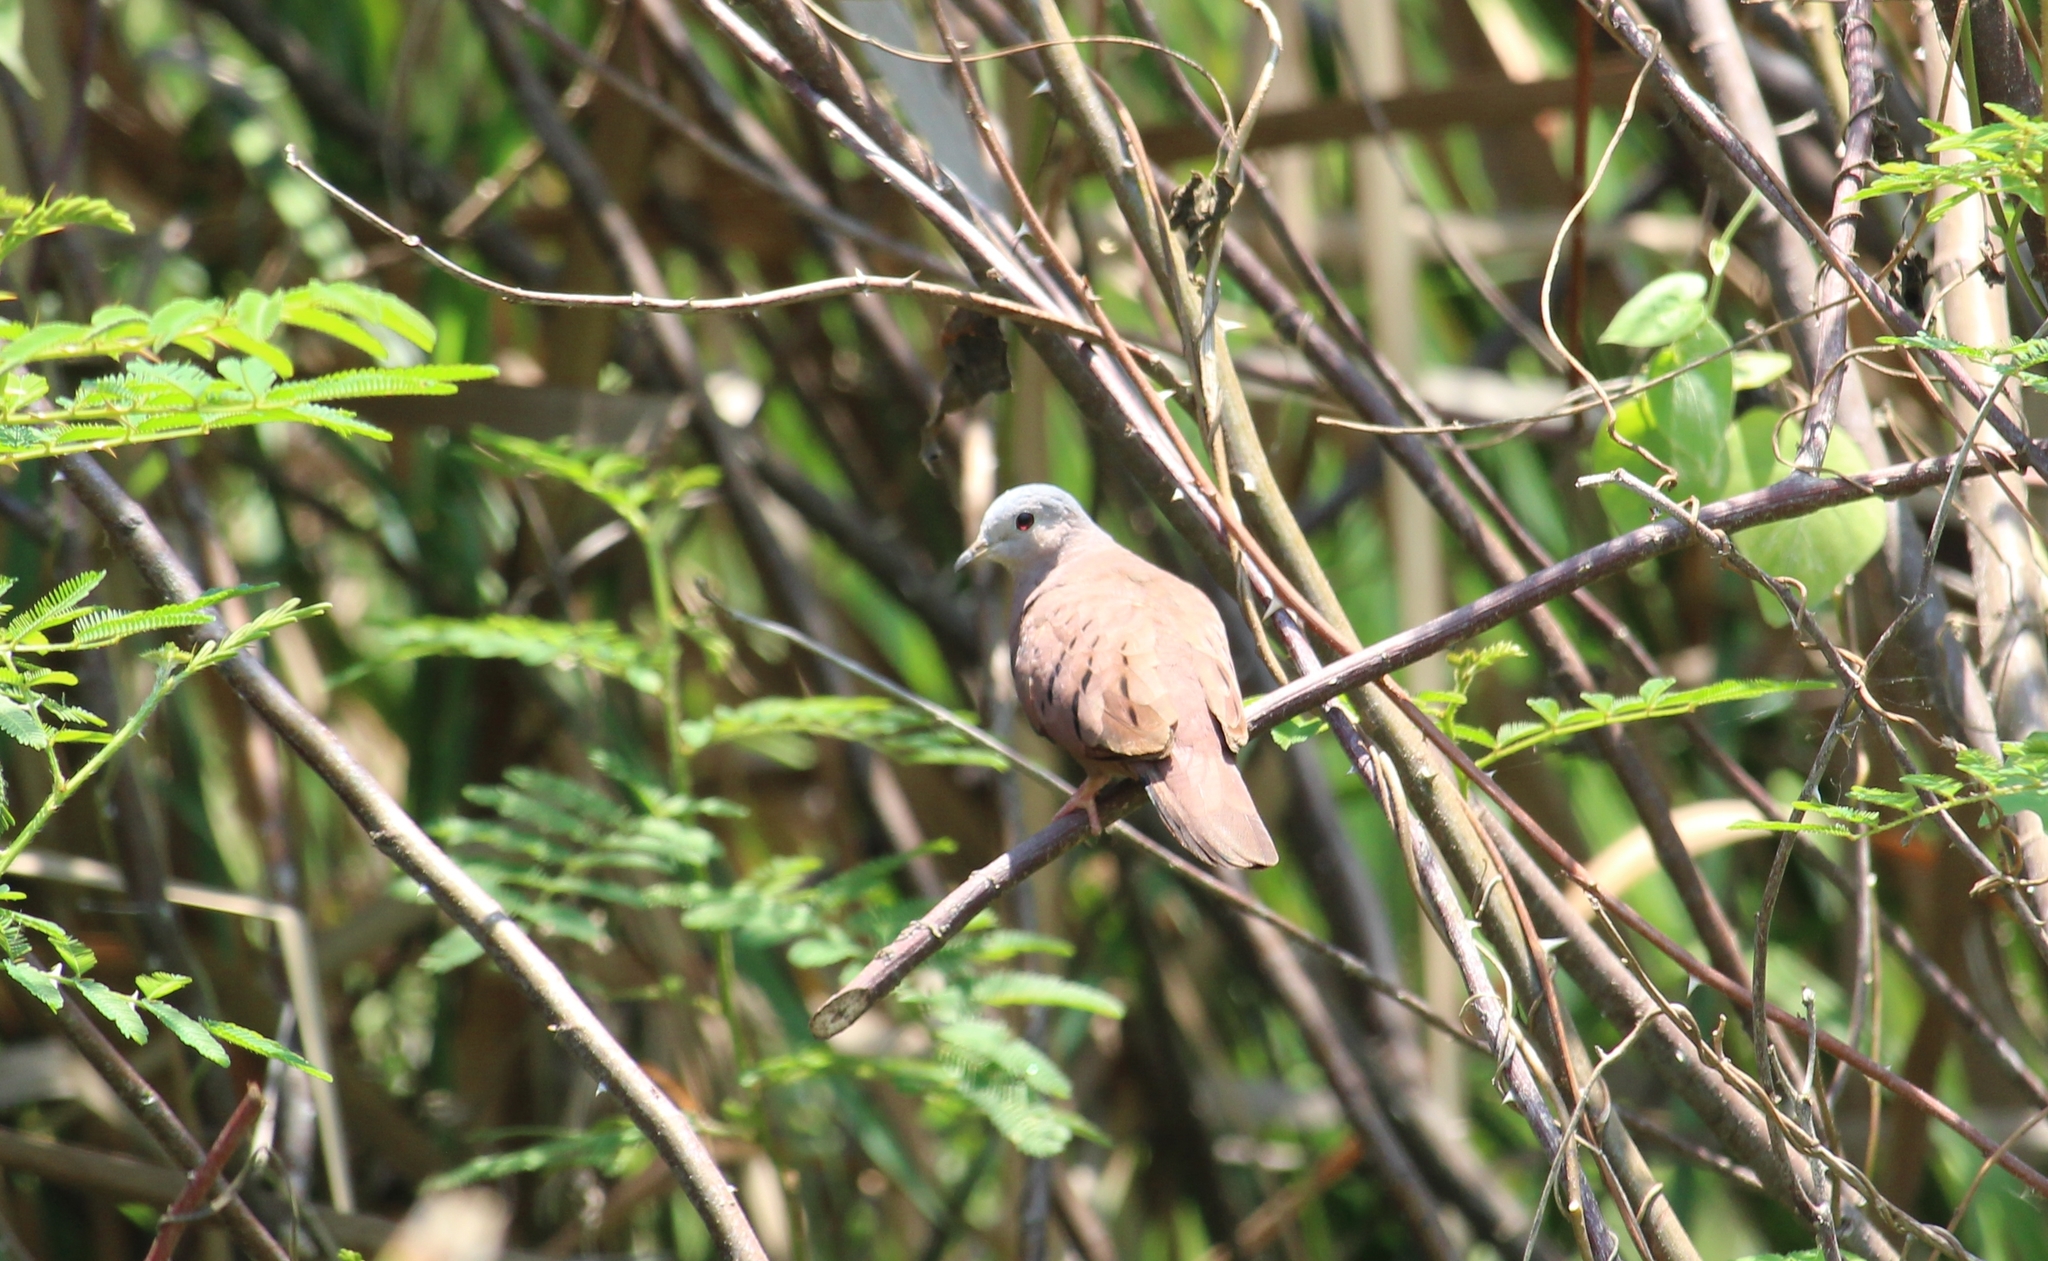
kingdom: Animalia
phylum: Chordata
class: Aves
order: Columbiformes
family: Columbidae
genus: Columbina
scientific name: Columbina talpacoti
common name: Ruddy ground dove
